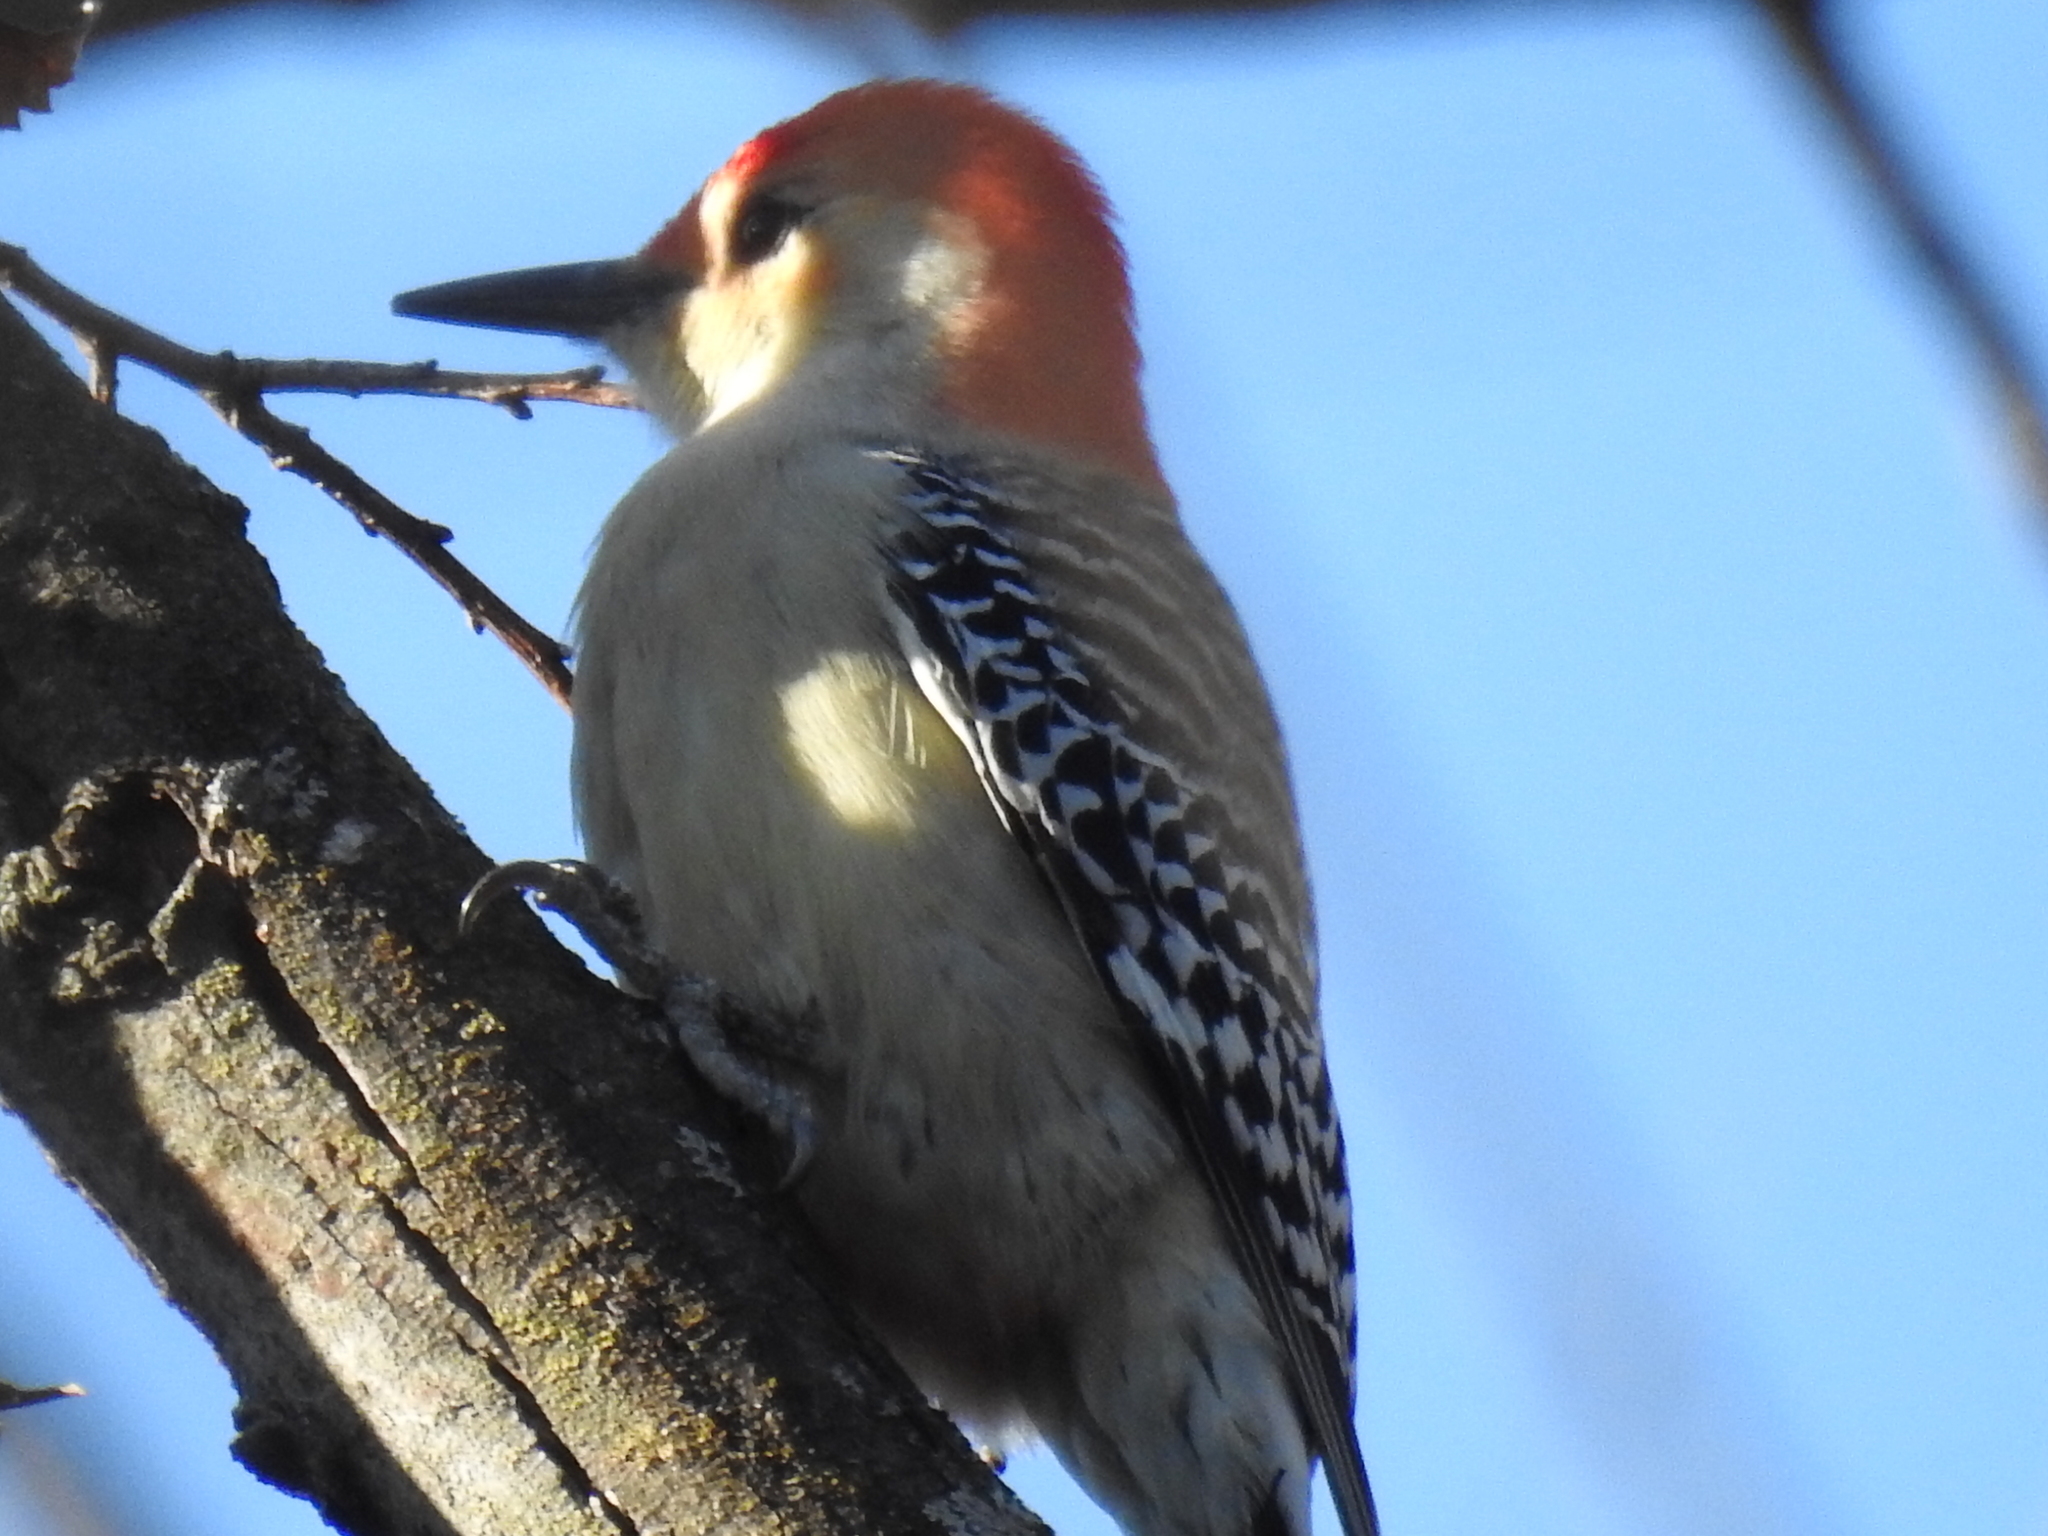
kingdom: Animalia
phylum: Chordata
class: Aves
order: Piciformes
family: Picidae
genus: Melanerpes
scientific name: Melanerpes carolinus
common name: Red-bellied woodpecker
